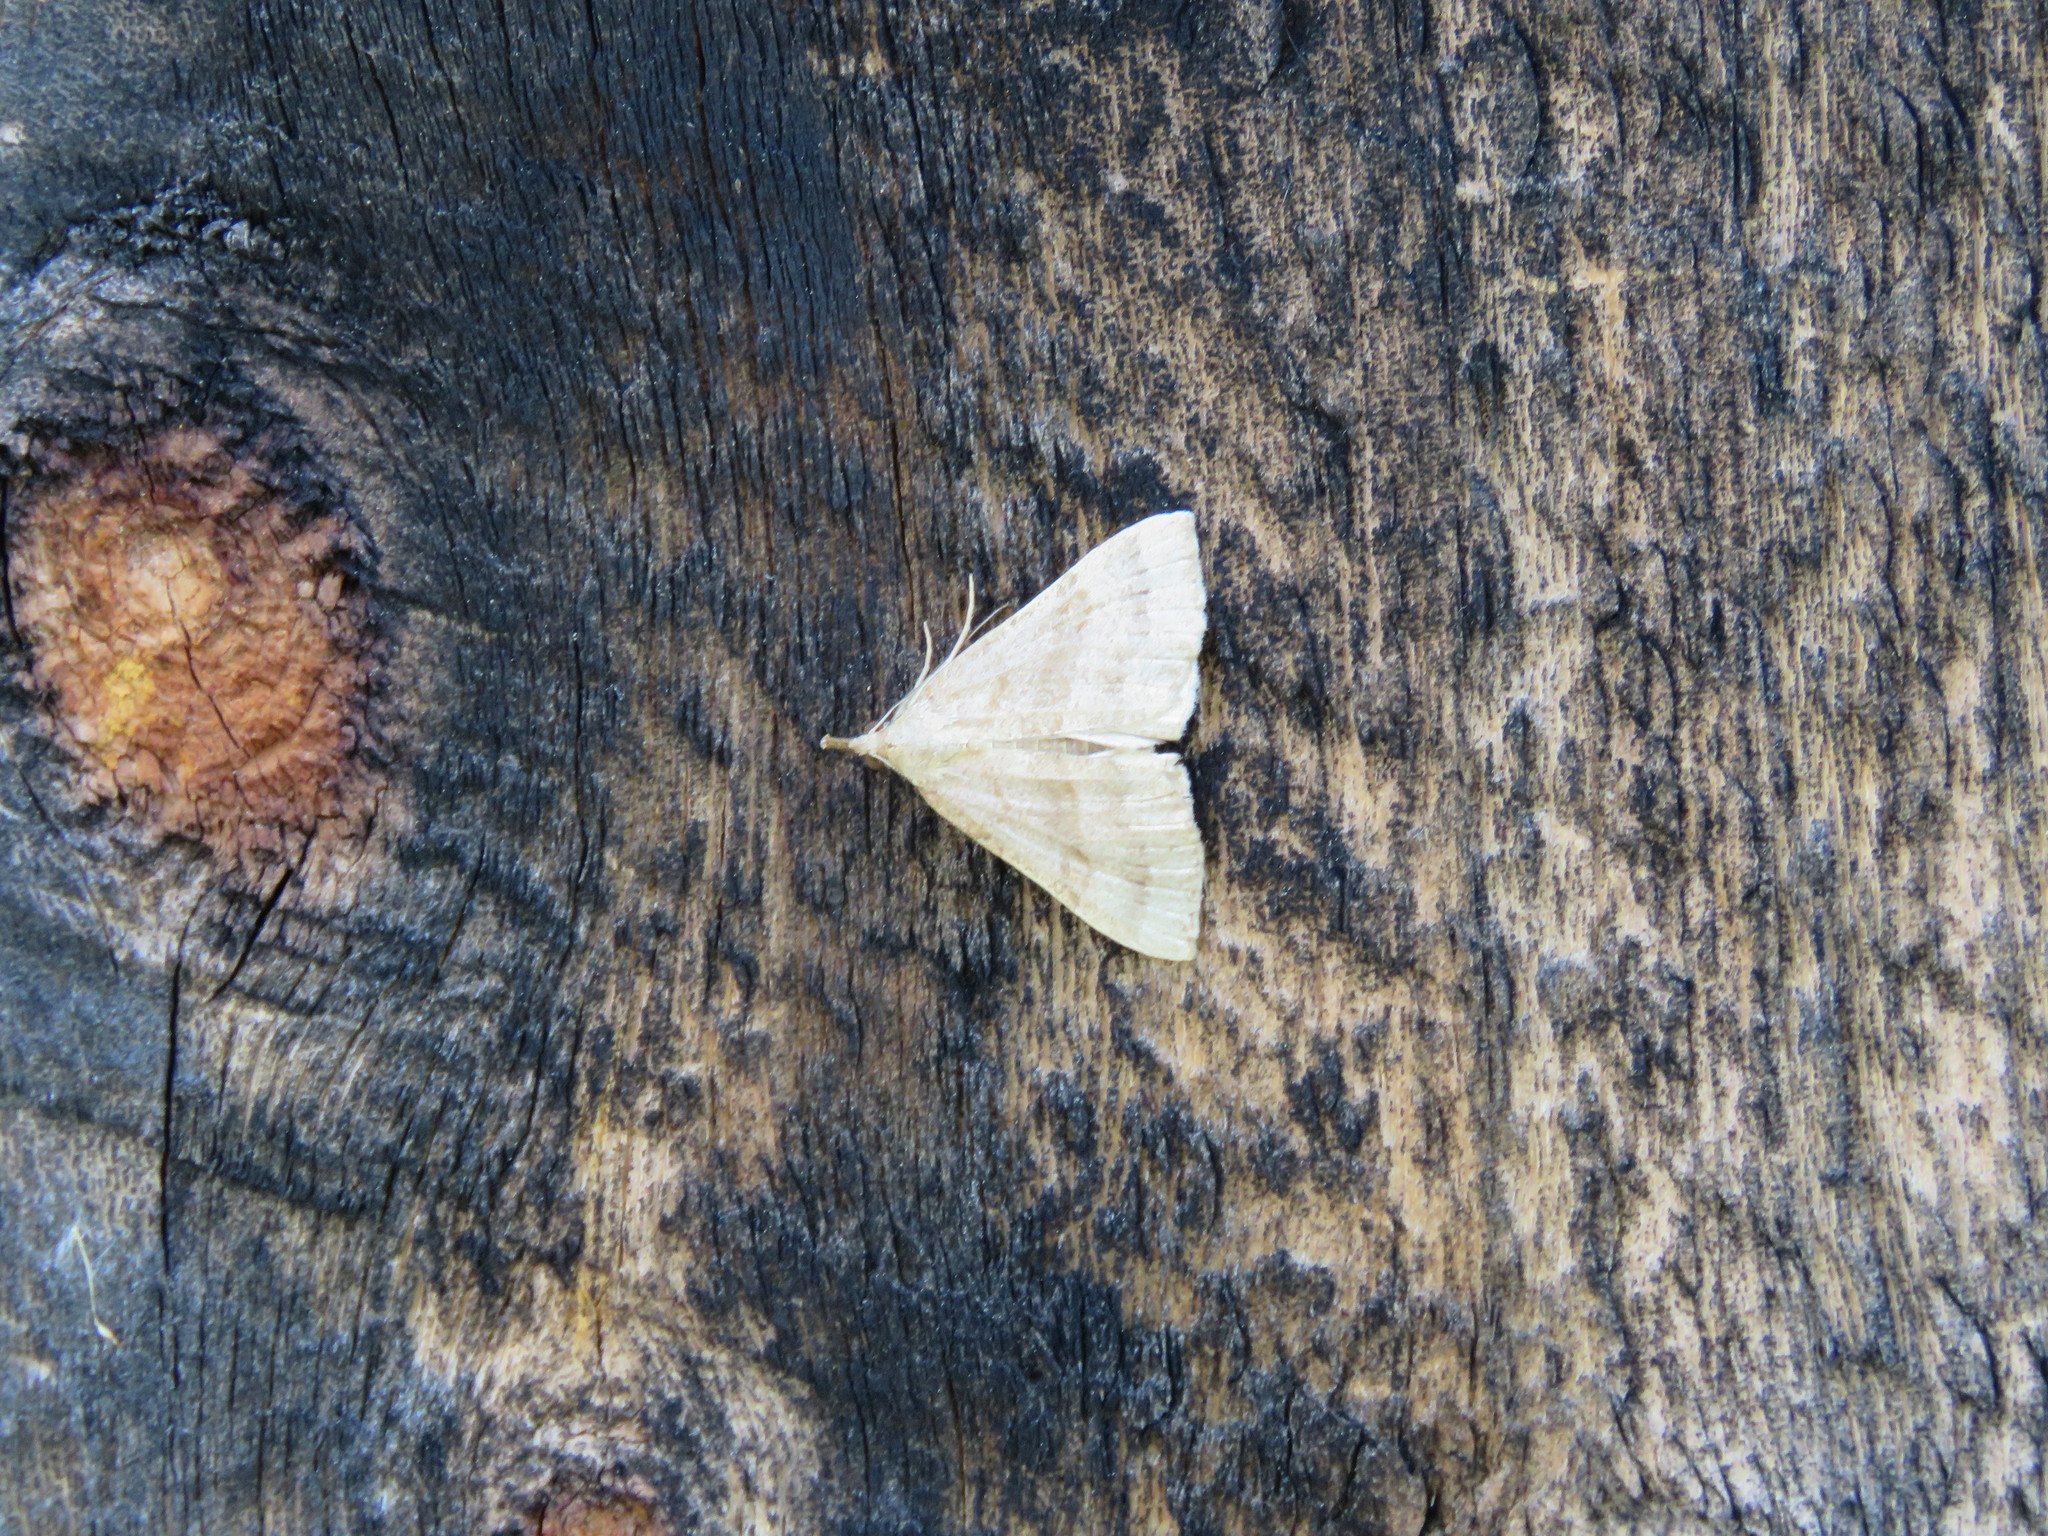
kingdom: Animalia
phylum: Arthropoda
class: Insecta
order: Lepidoptera
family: Erebidae
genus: Hypena
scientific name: Hypena atomaria
